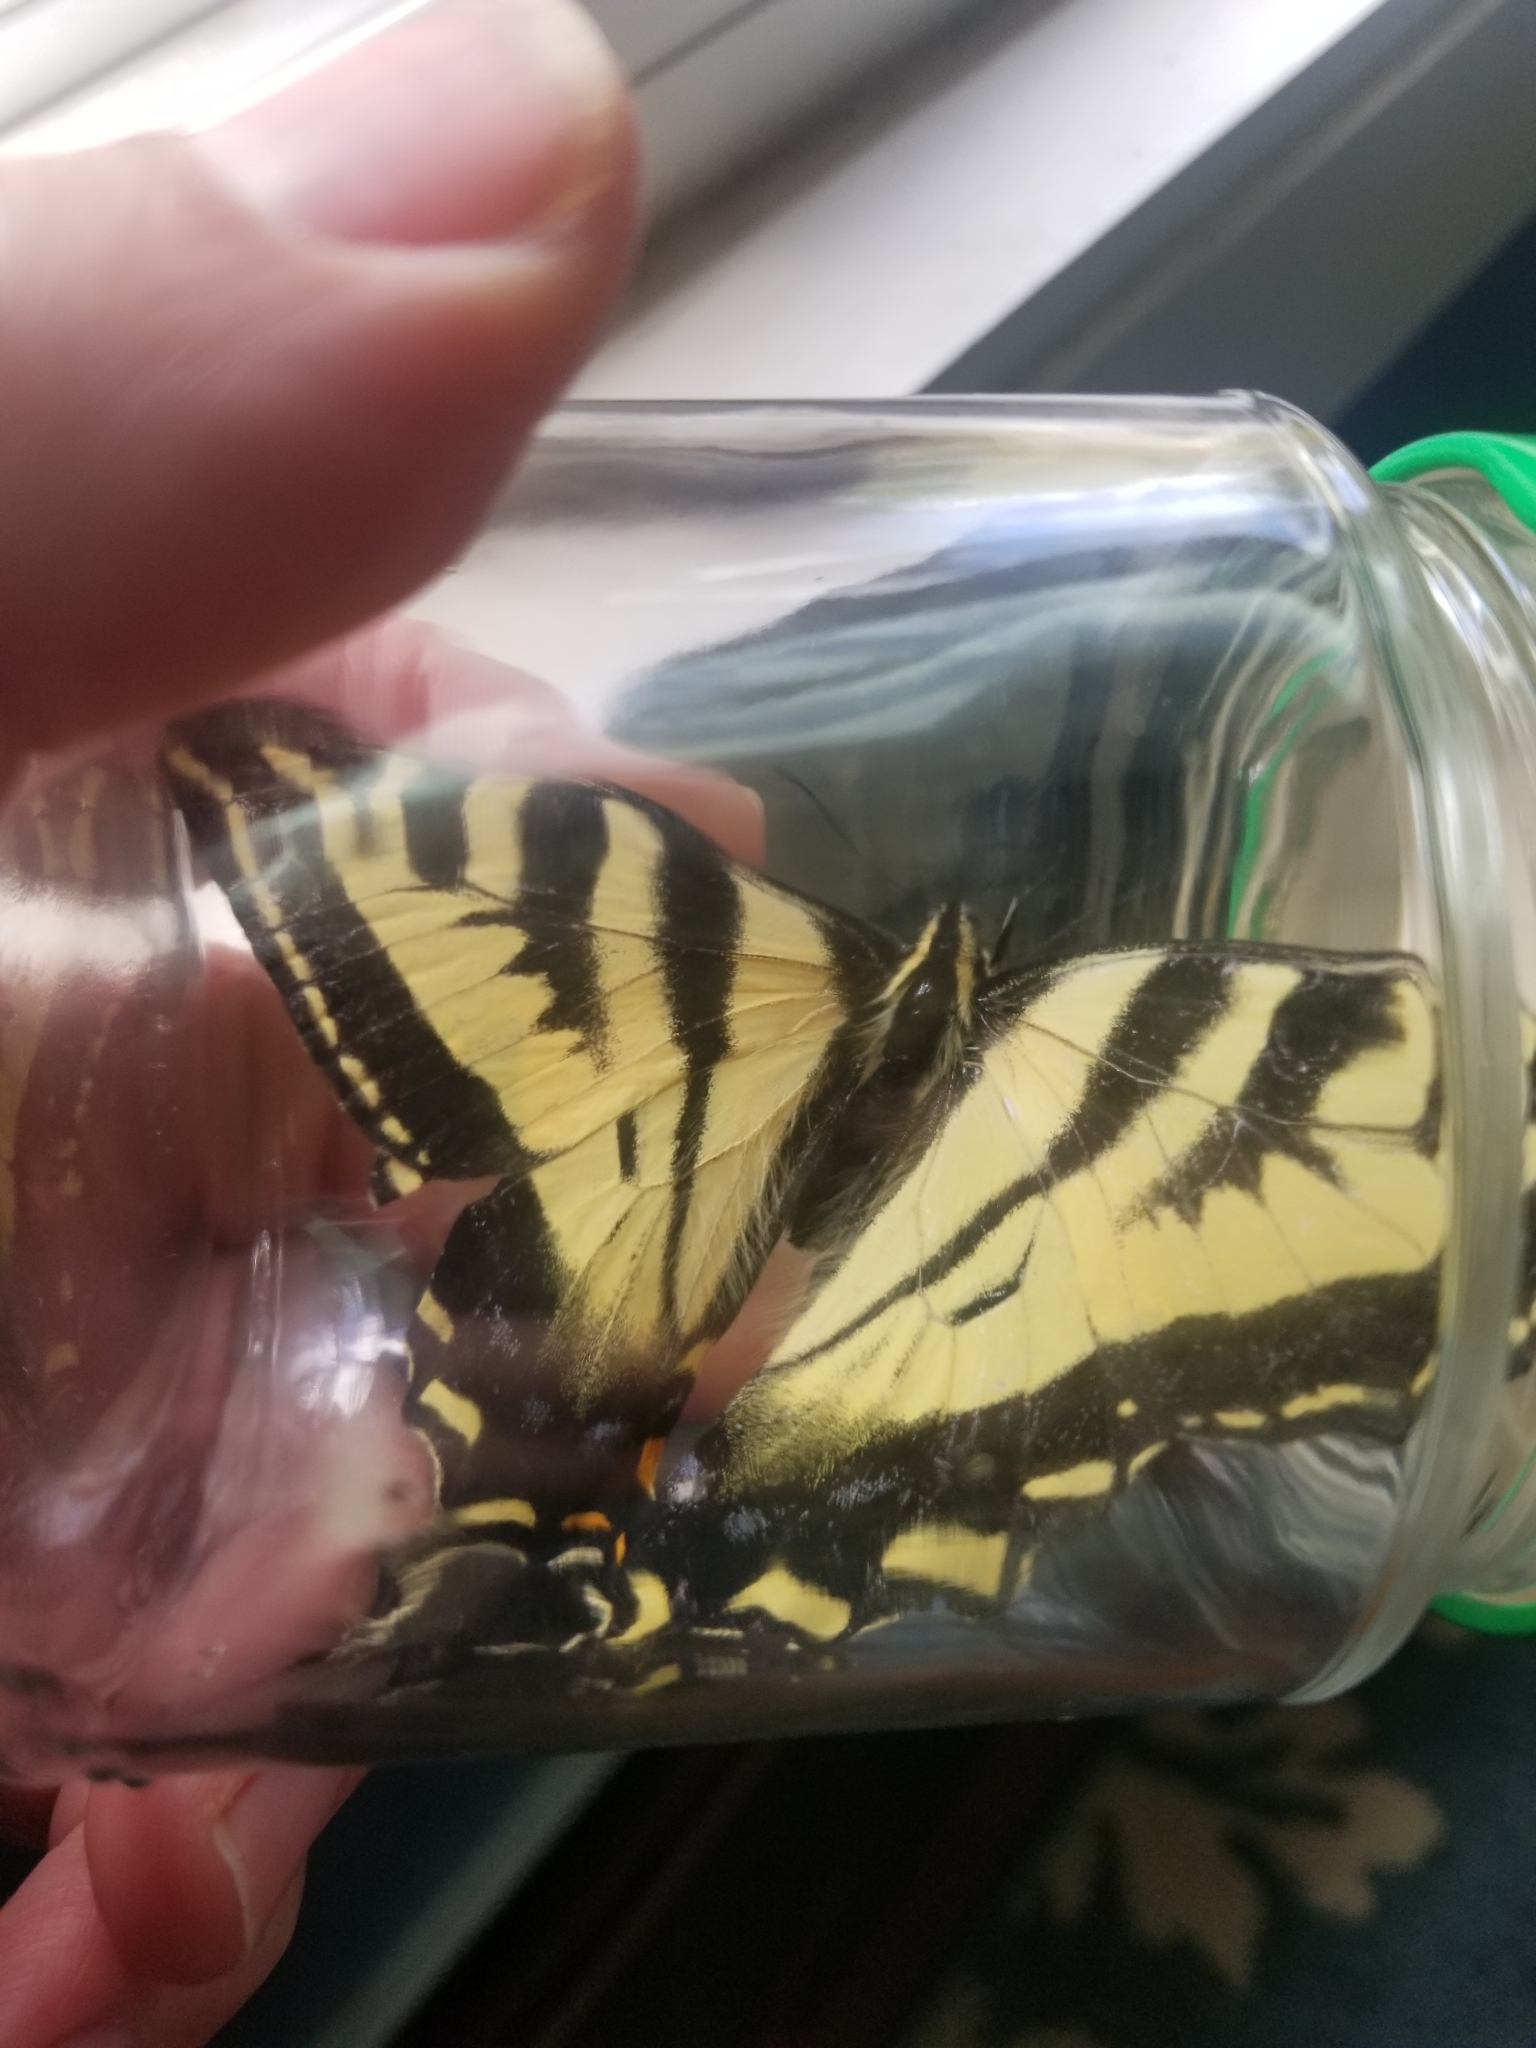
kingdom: Animalia
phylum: Arthropoda
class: Insecta
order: Lepidoptera
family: Papilionidae
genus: Papilio
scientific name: Papilio rutulus
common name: Western tiger swallowtail
